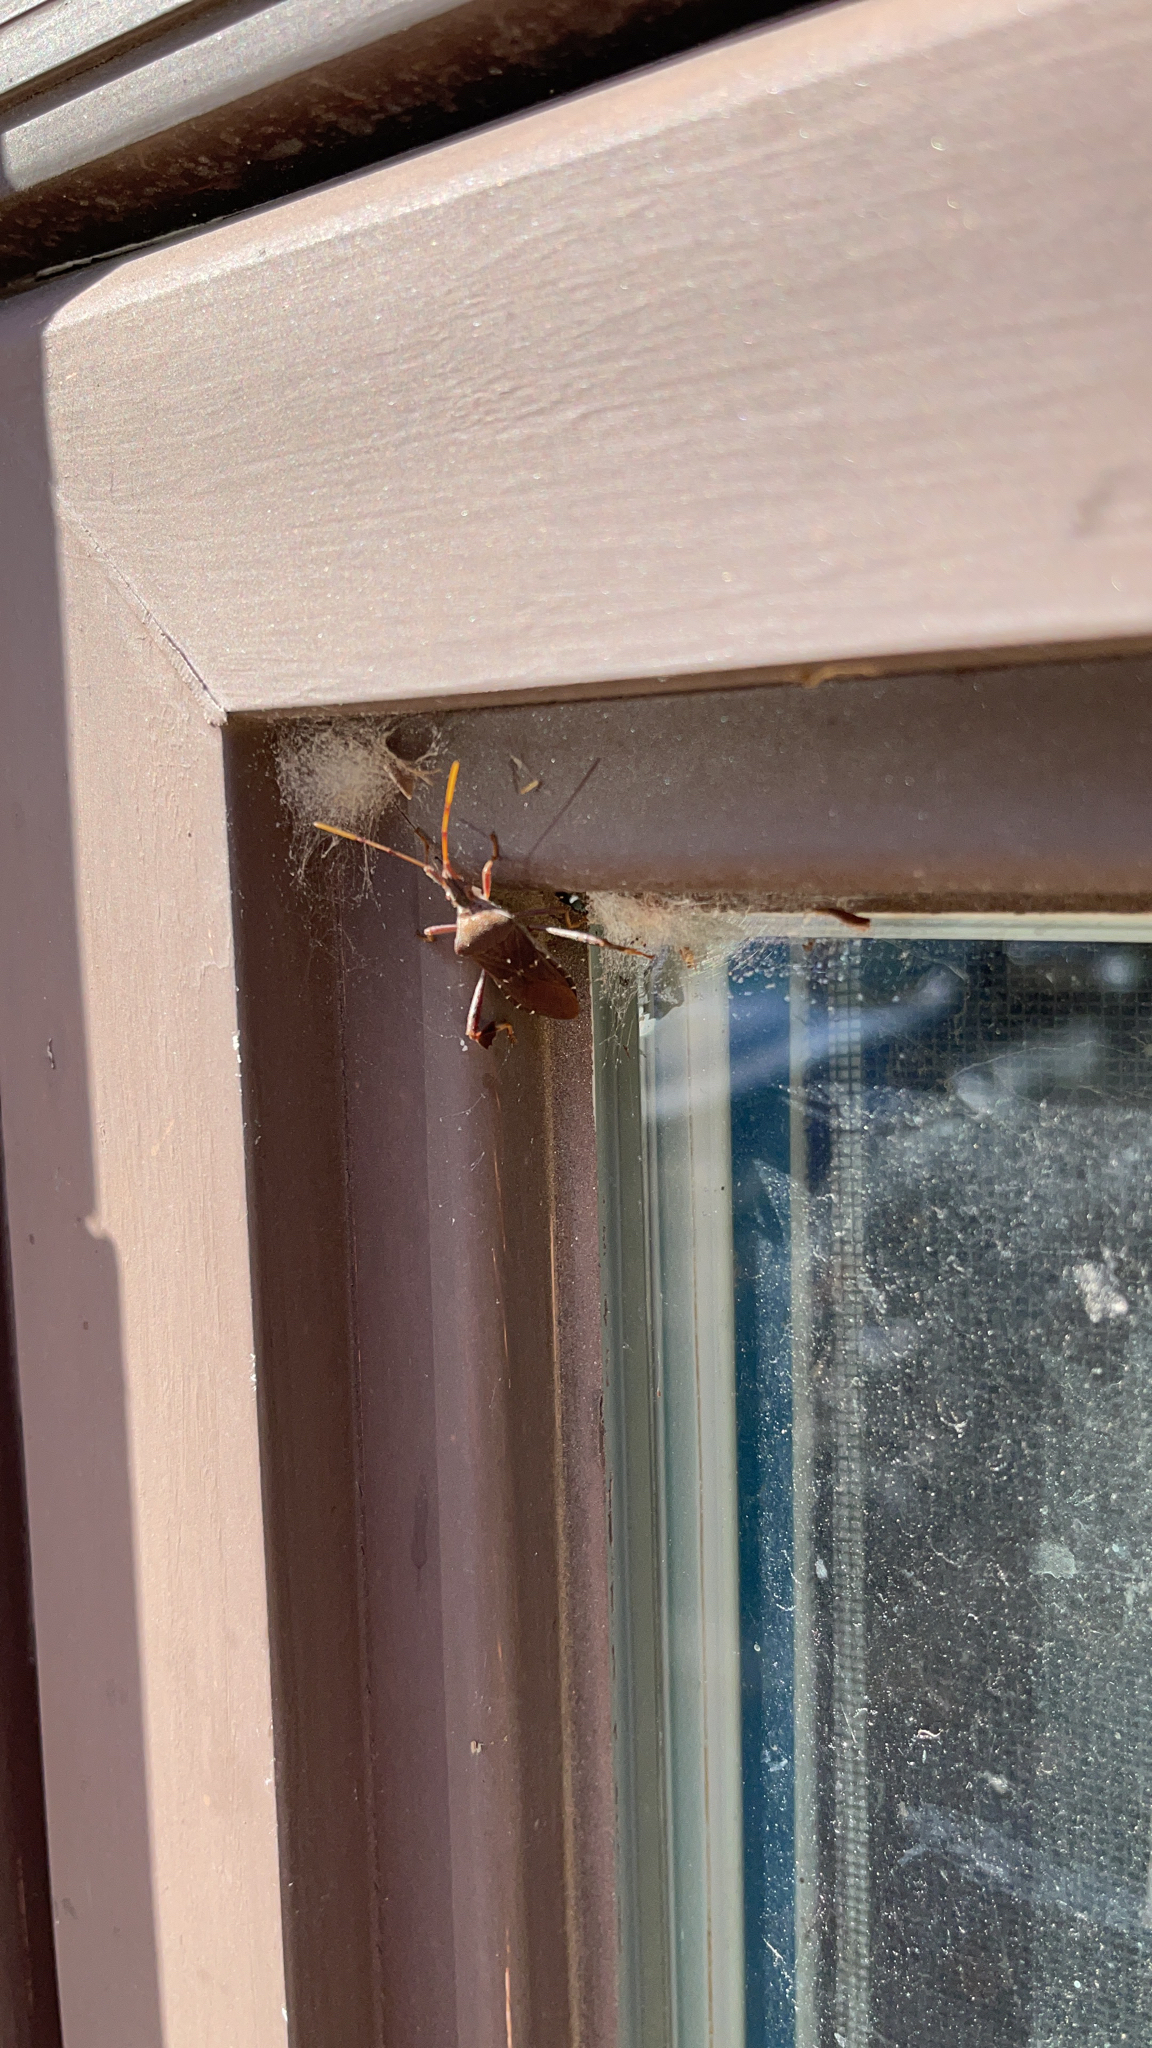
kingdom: Animalia
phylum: Arthropoda
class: Insecta
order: Hemiptera
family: Coreidae
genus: Leptoglossus
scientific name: Leptoglossus oppositus
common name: Northern leaf-footed bug
